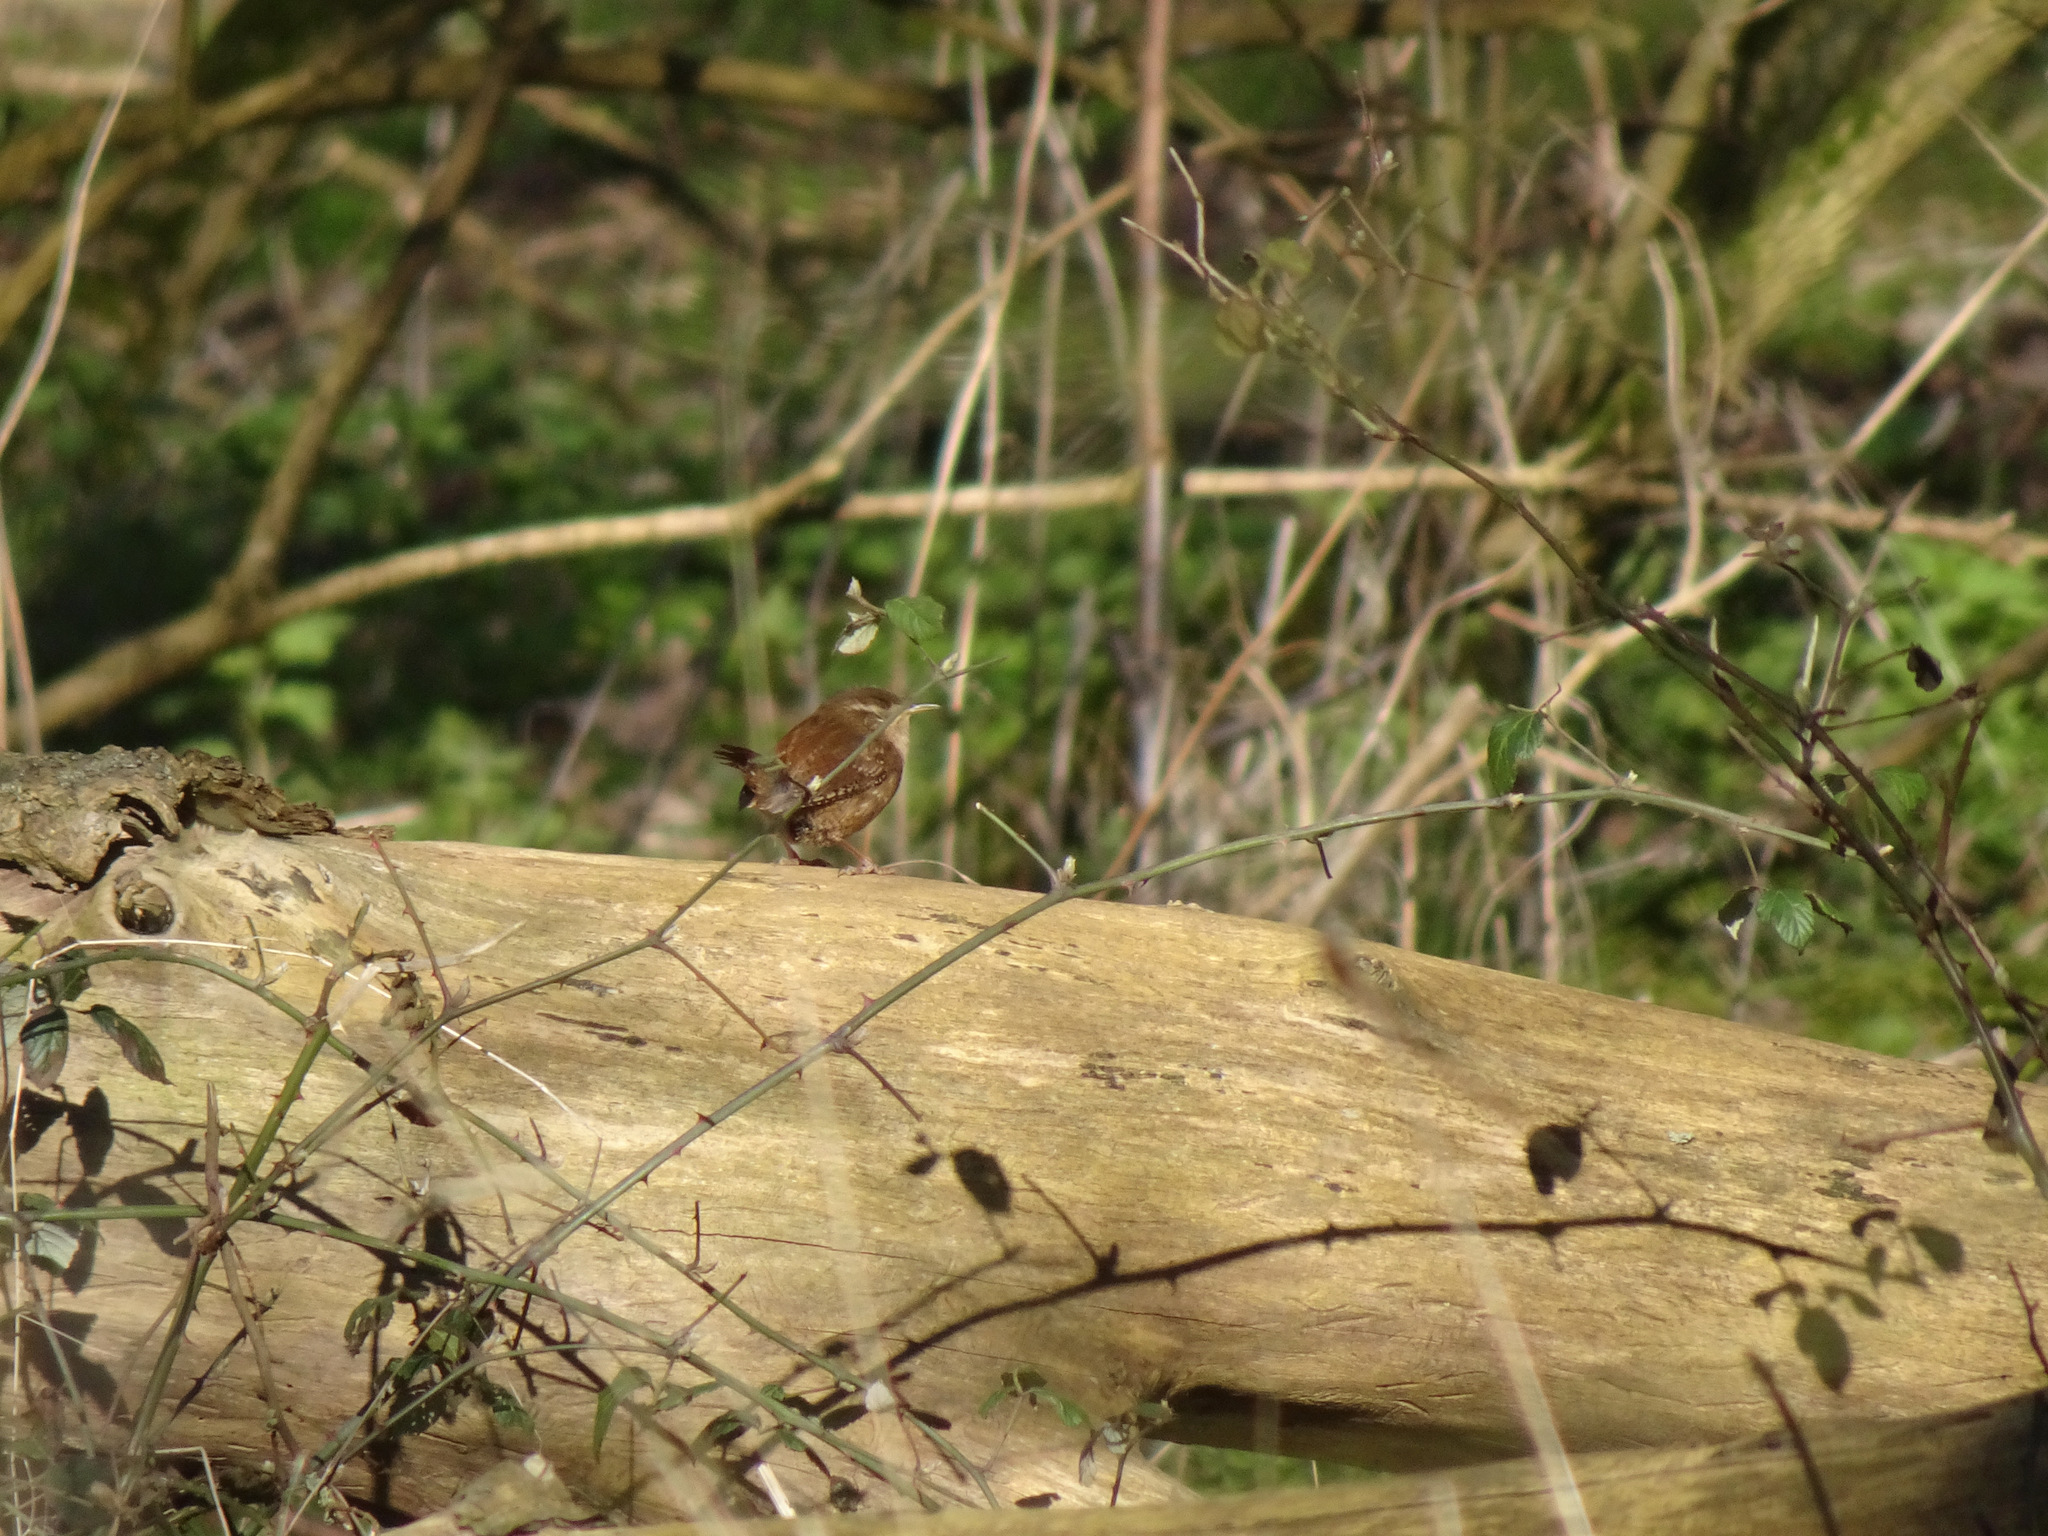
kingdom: Animalia
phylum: Chordata
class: Aves
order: Passeriformes
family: Troglodytidae
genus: Troglodytes
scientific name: Troglodytes troglodytes
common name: Eurasian wren
